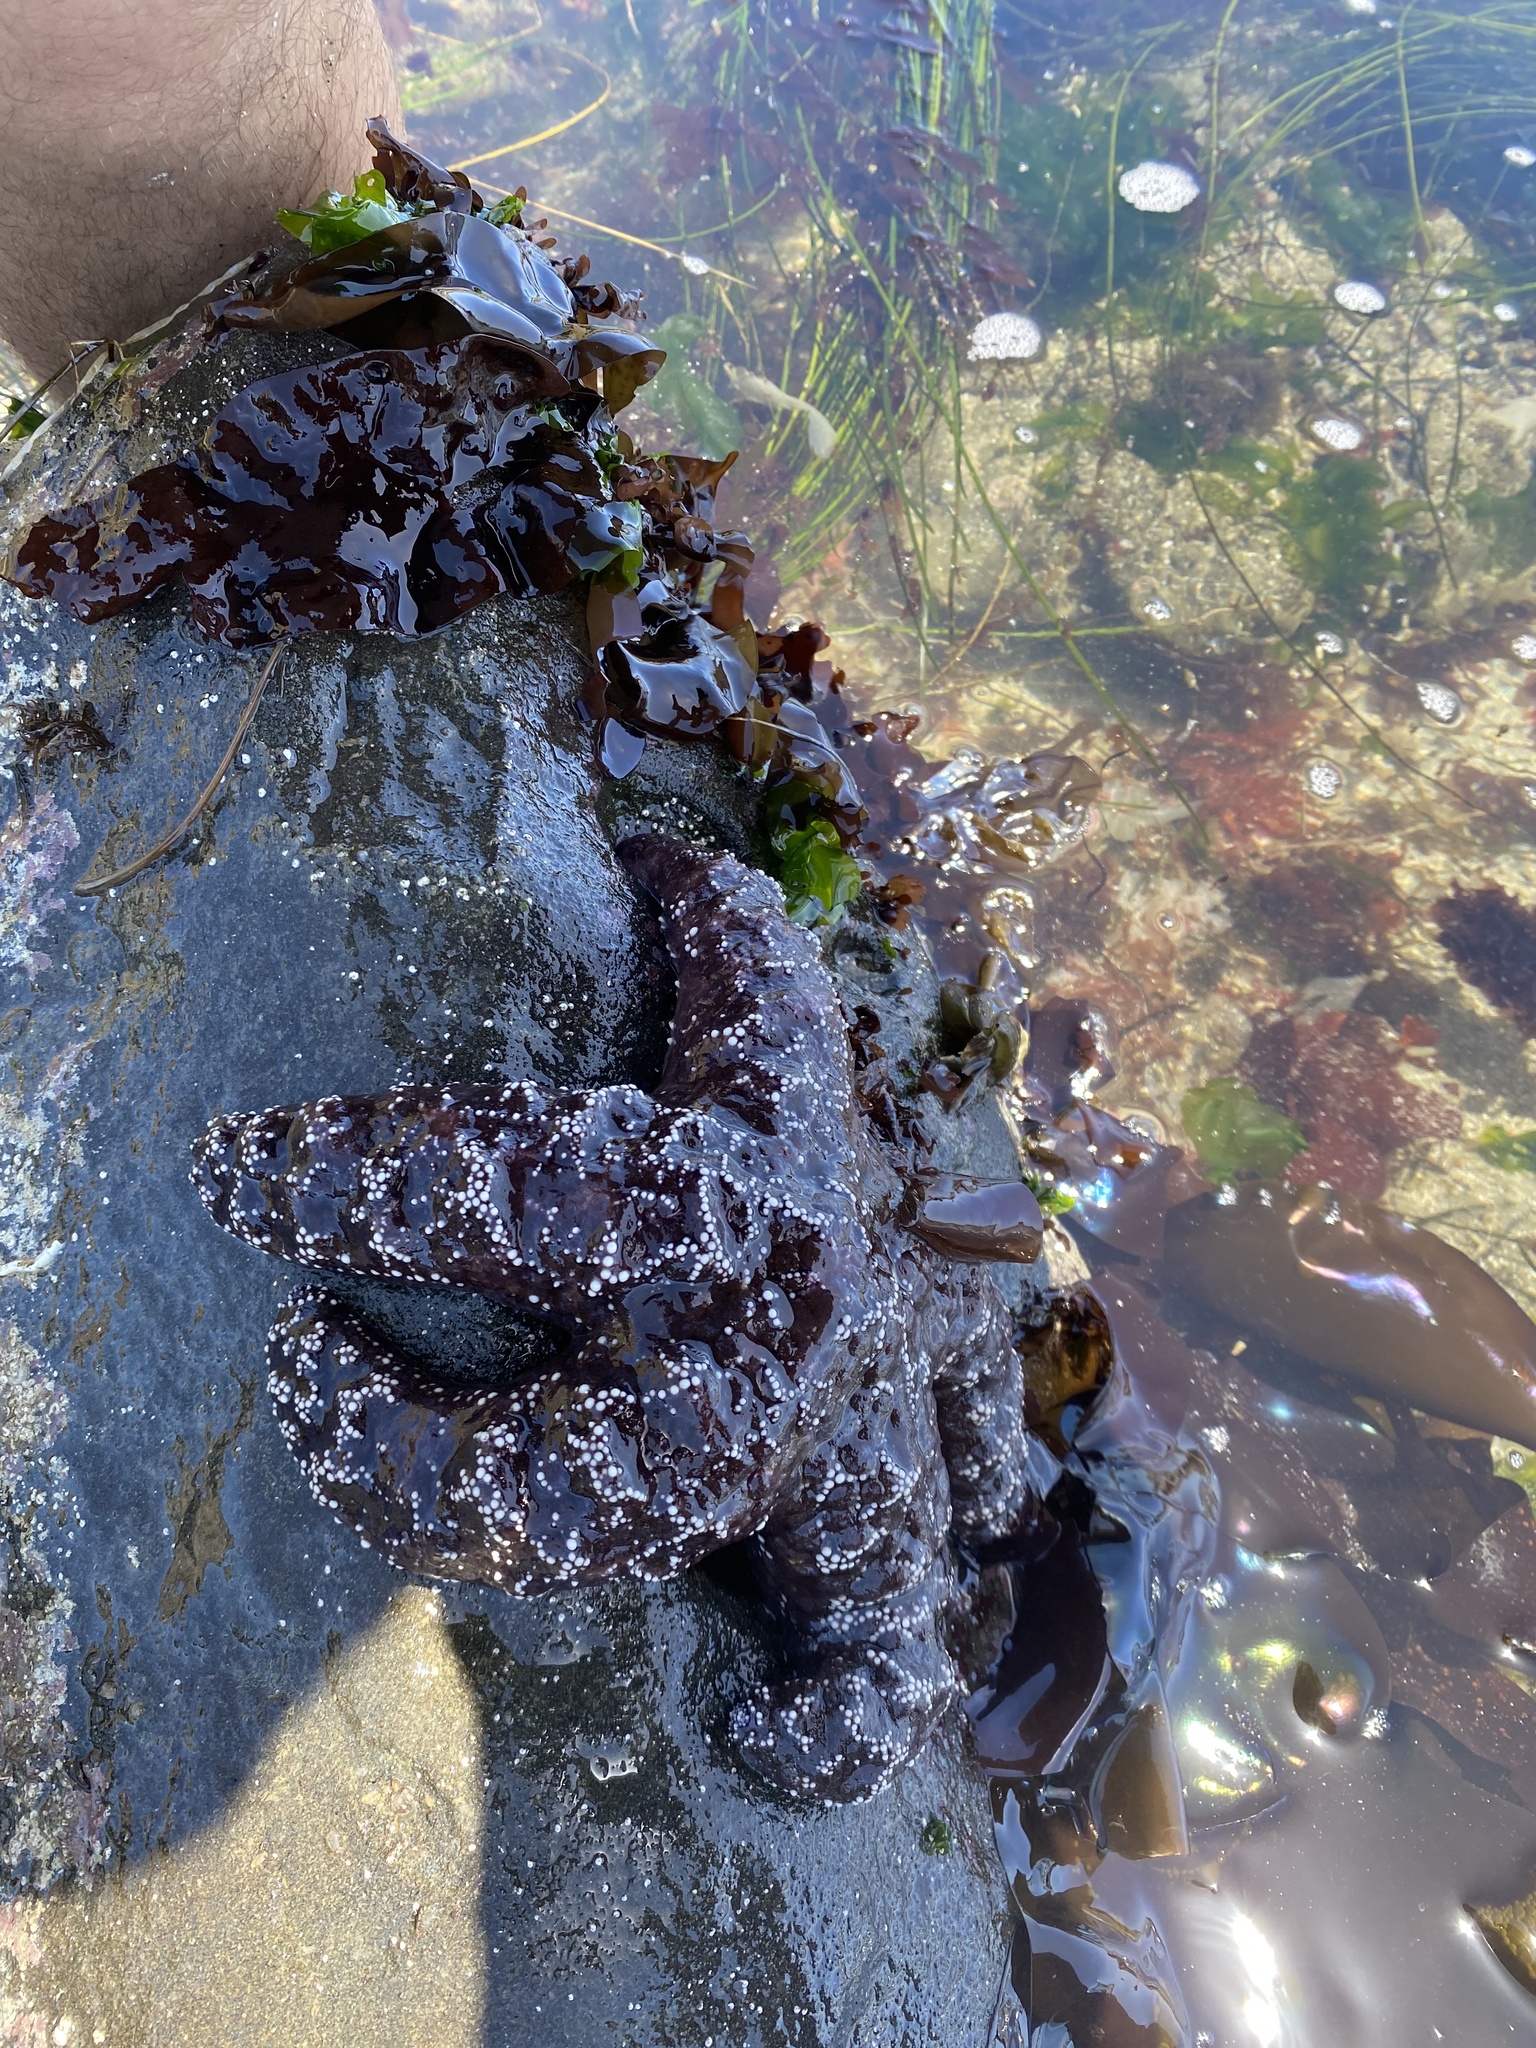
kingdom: Animalia
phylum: Echinodermata
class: Asteroidea
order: Forcipulatida
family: Asteriidae
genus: Pisaster
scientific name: Pisaster ochraceus
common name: Ochre stars
